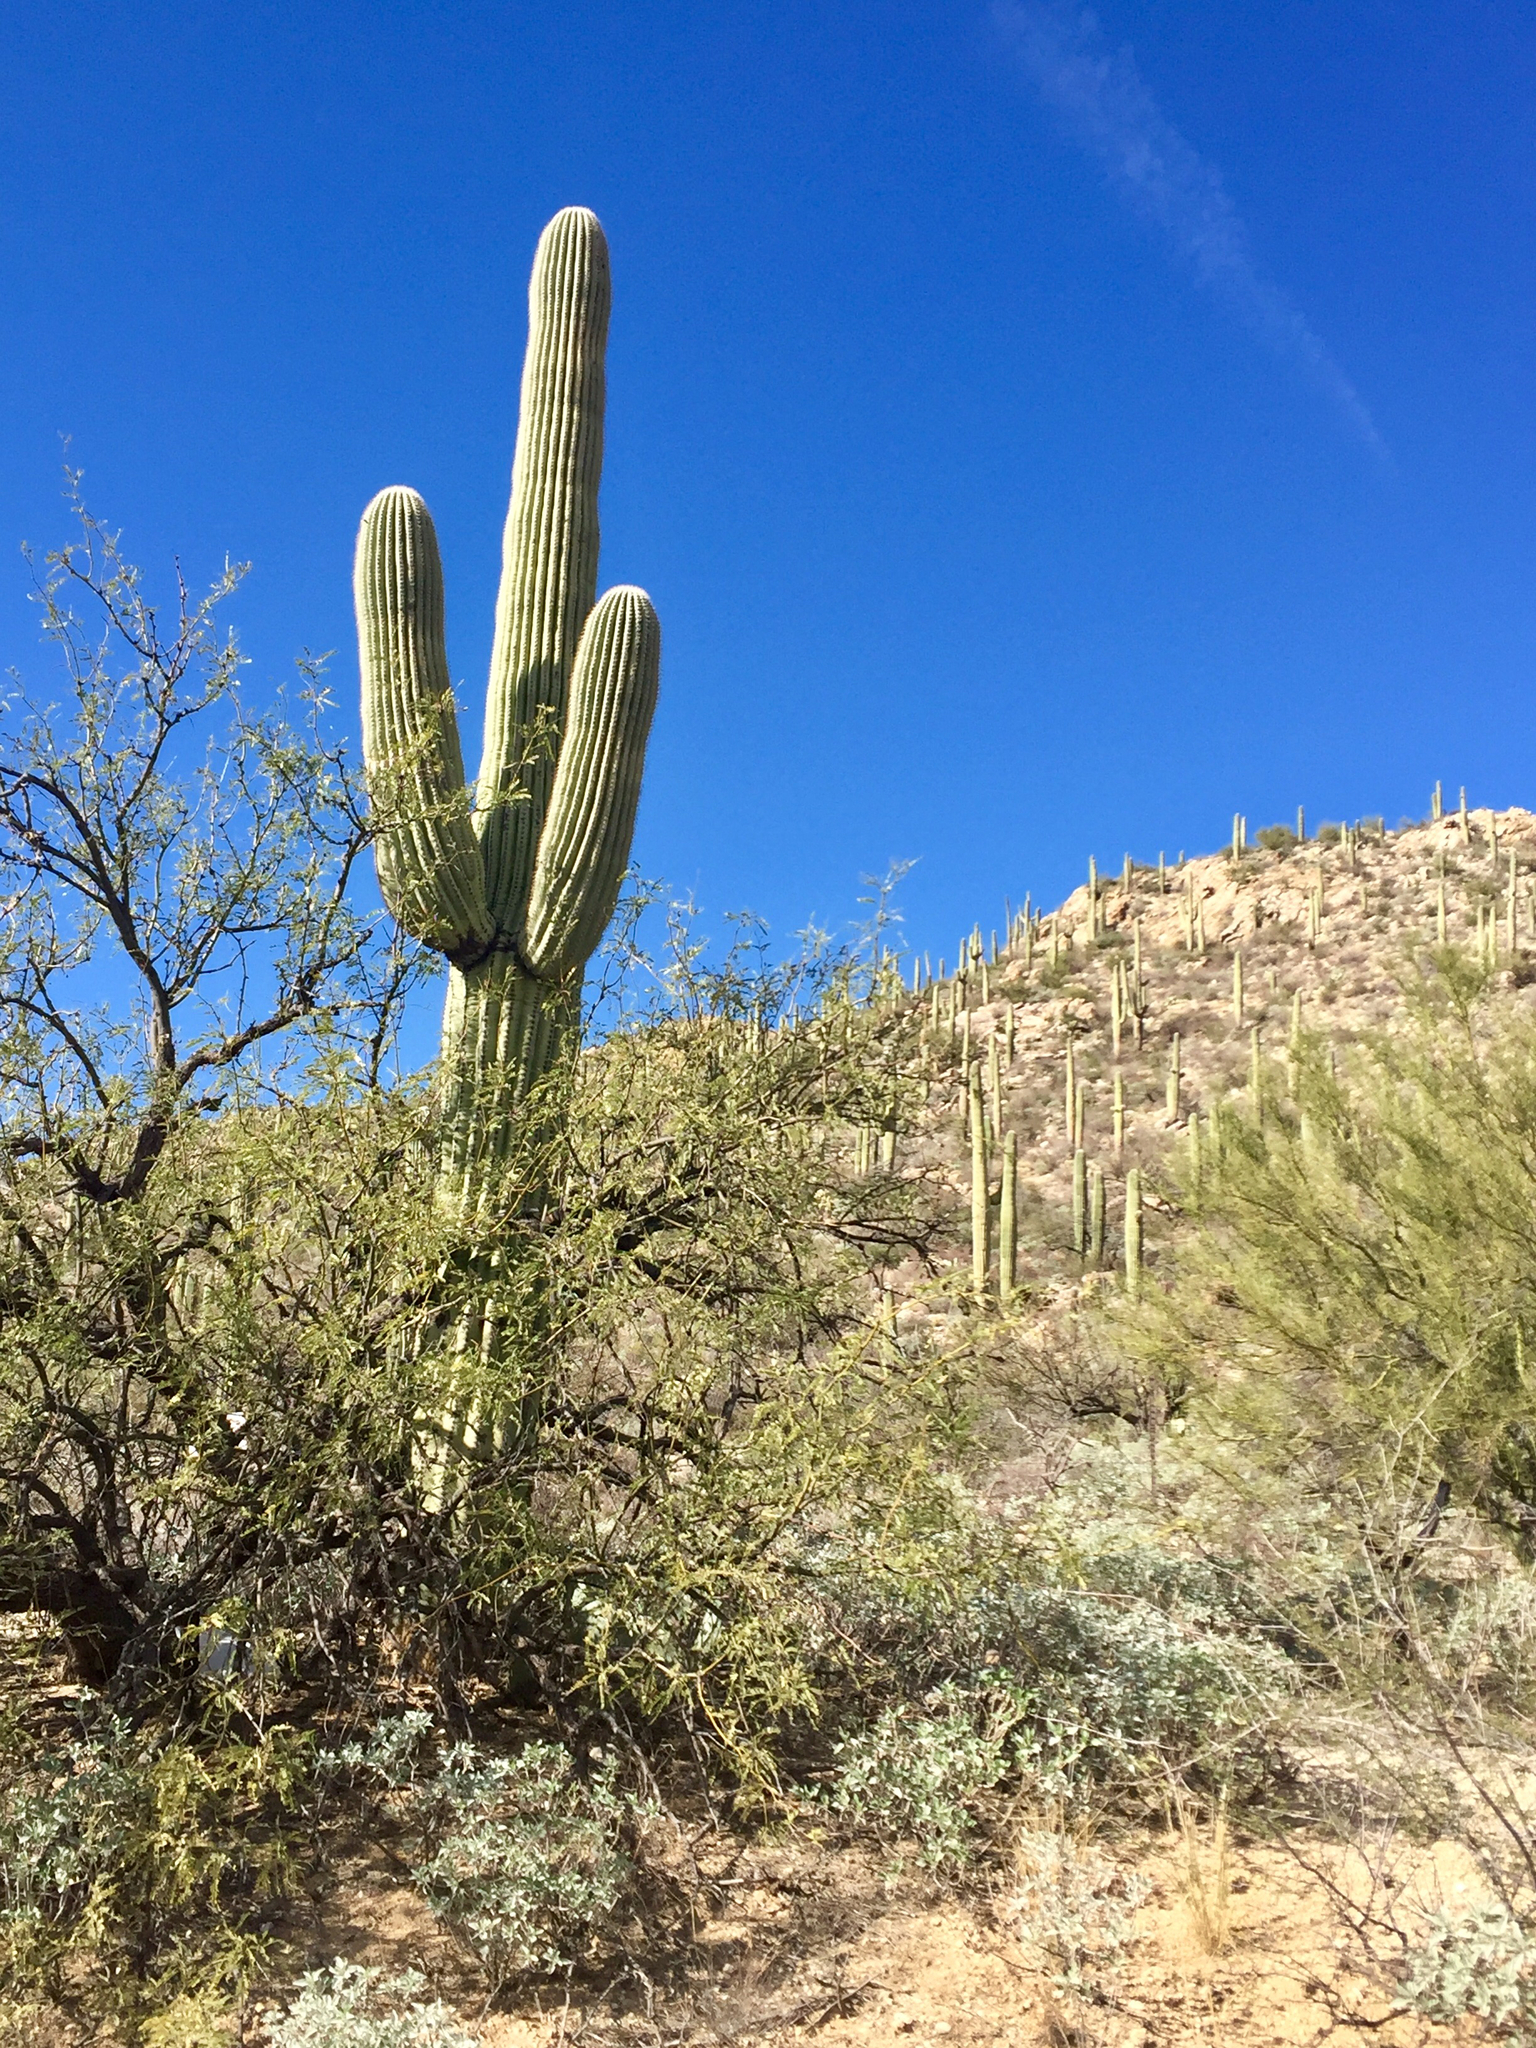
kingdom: Plantae
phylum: Tracheophyta
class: Magnoliopsida
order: Caryophyllales
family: Cactaceae
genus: Carnegiea
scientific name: Carnegiea gigantea
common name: Saguaro
